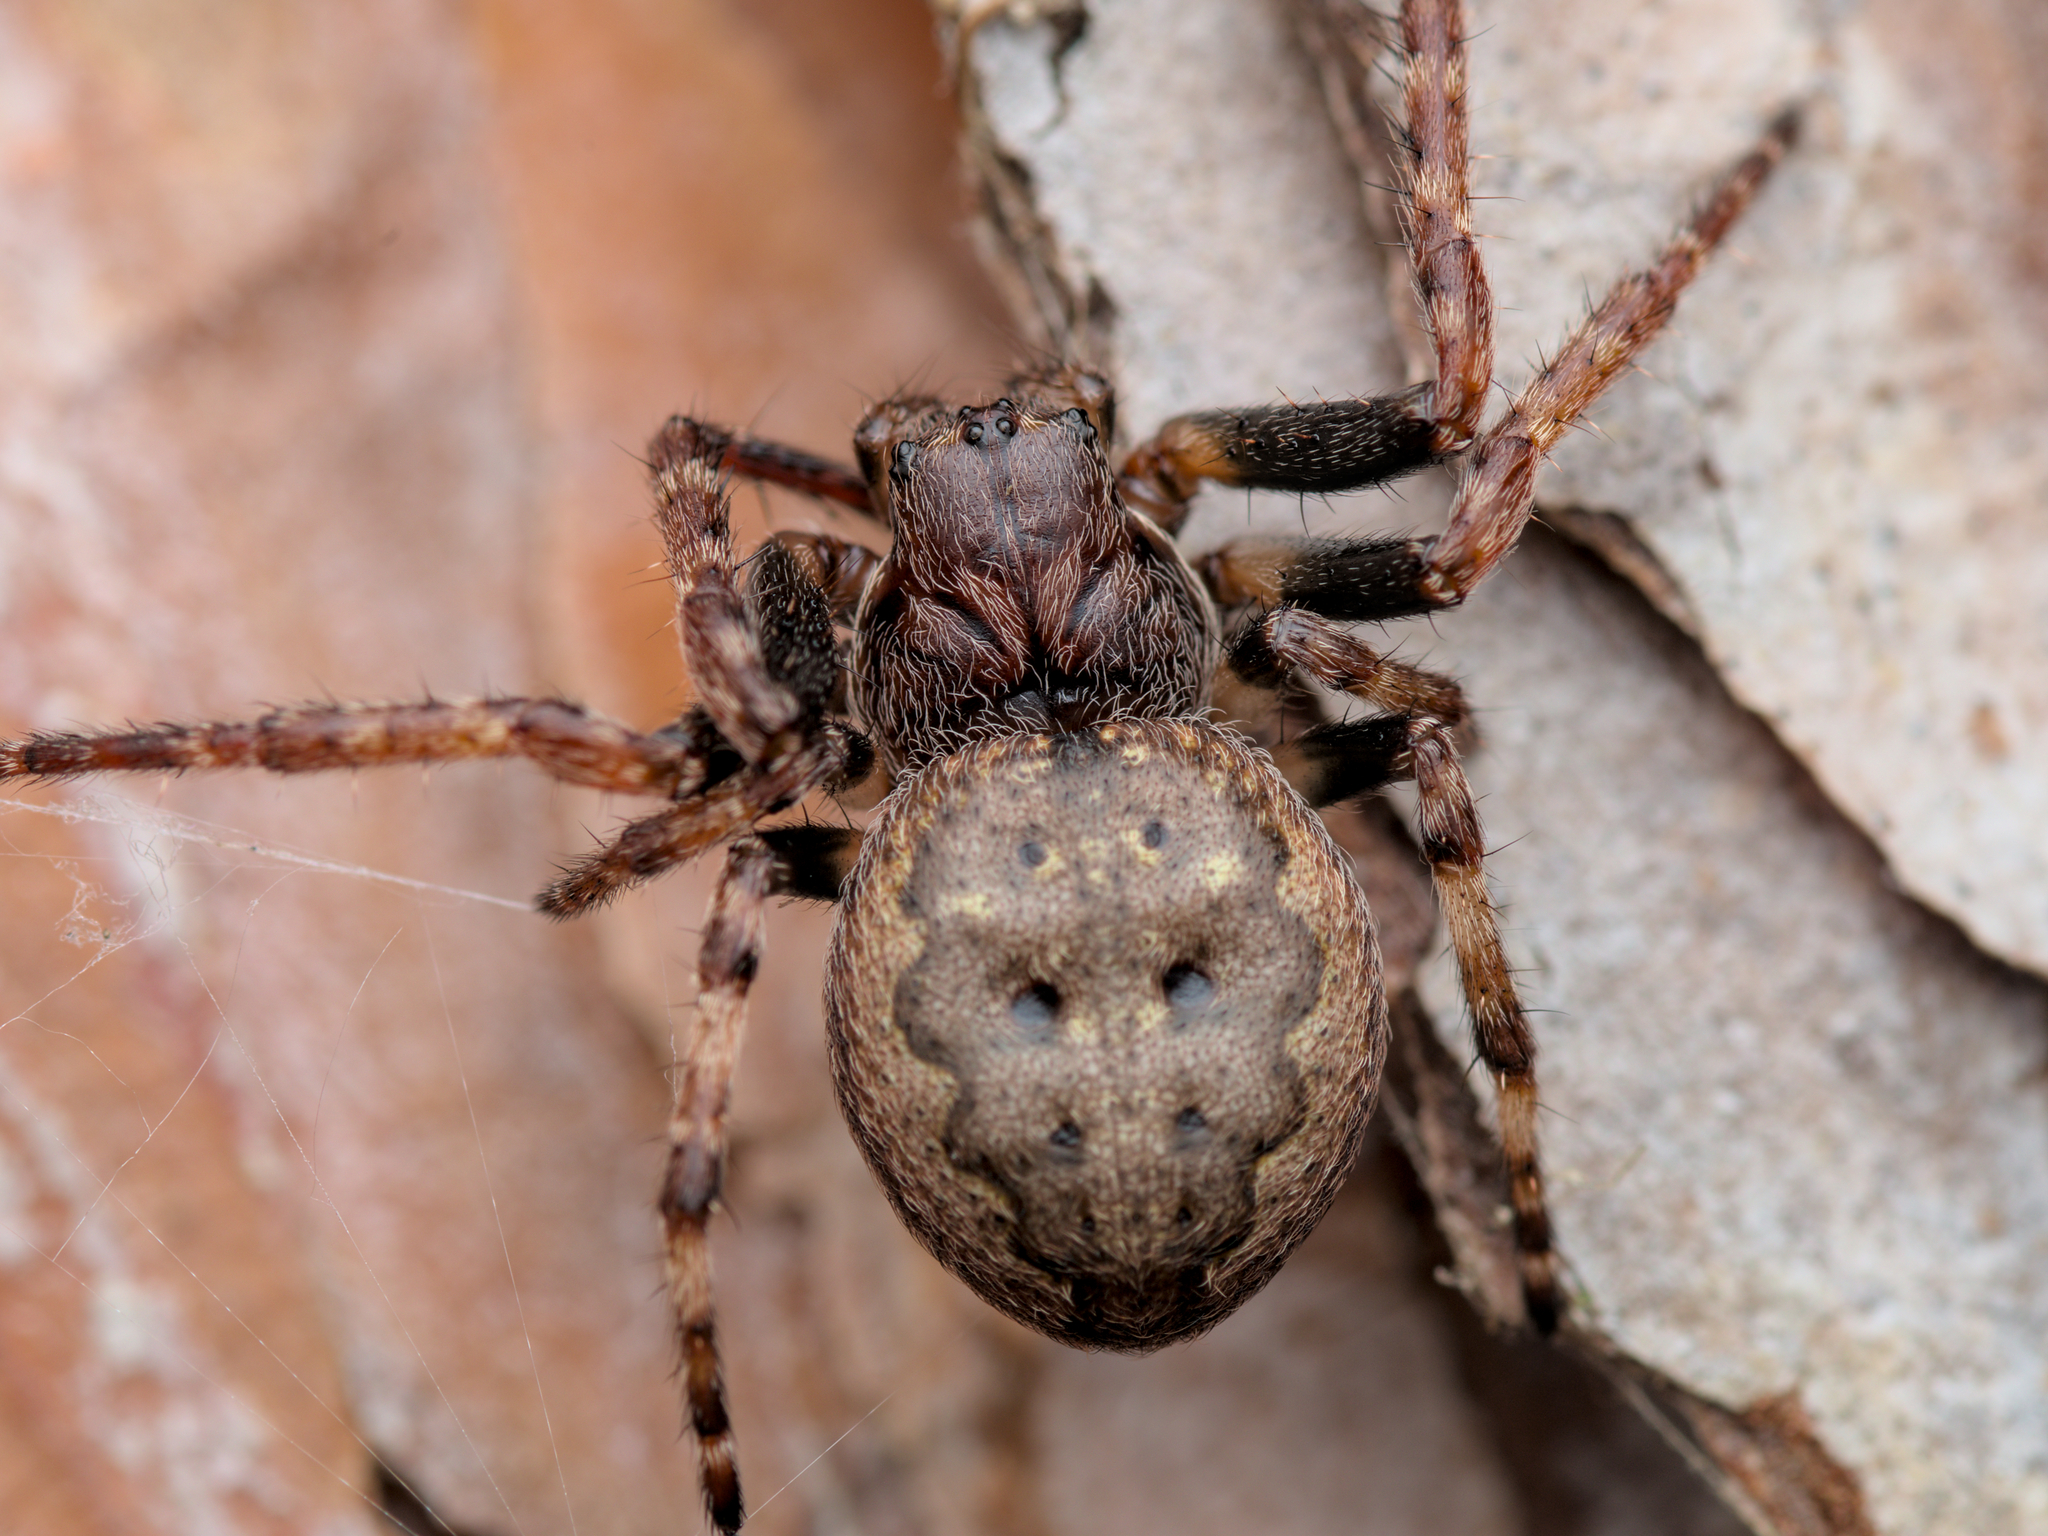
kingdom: Animalia
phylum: Arthropoda
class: Arachnida
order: Araneae
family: Araneidae
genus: Nuctenea
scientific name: Nuctenea umbratica
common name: Toad spider
